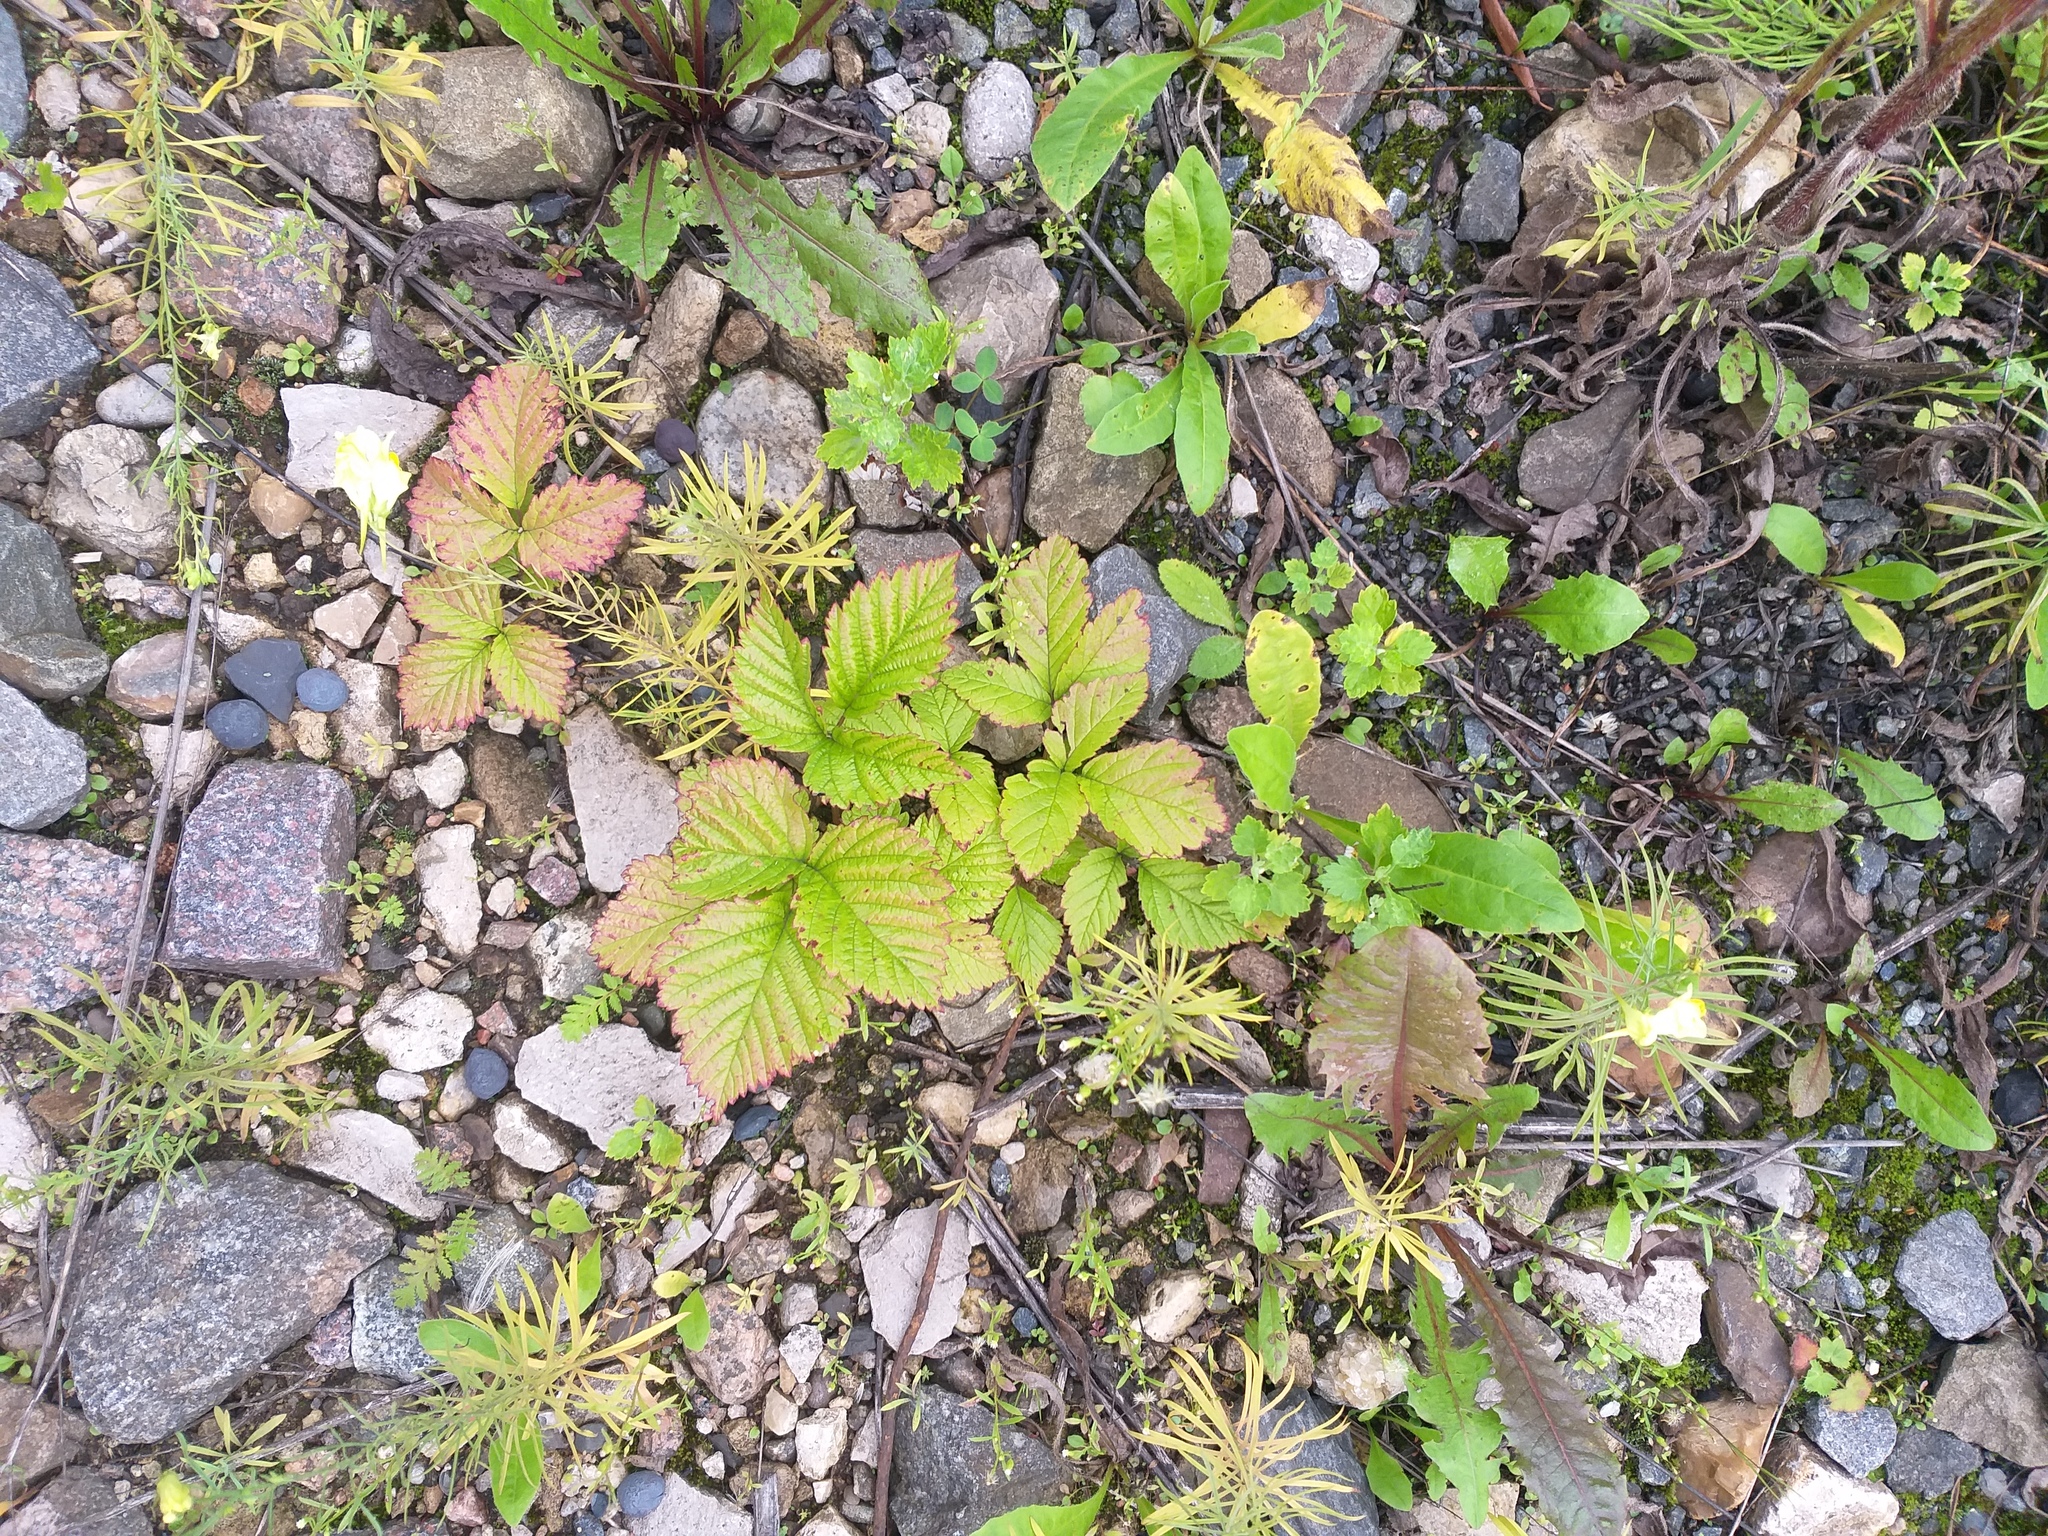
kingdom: Plantae
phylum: Tracheophyta
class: Magnoliopsida
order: Rosales
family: Rosaceae
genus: Rubus
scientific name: Rubus saxatilis
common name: Stone bramble
